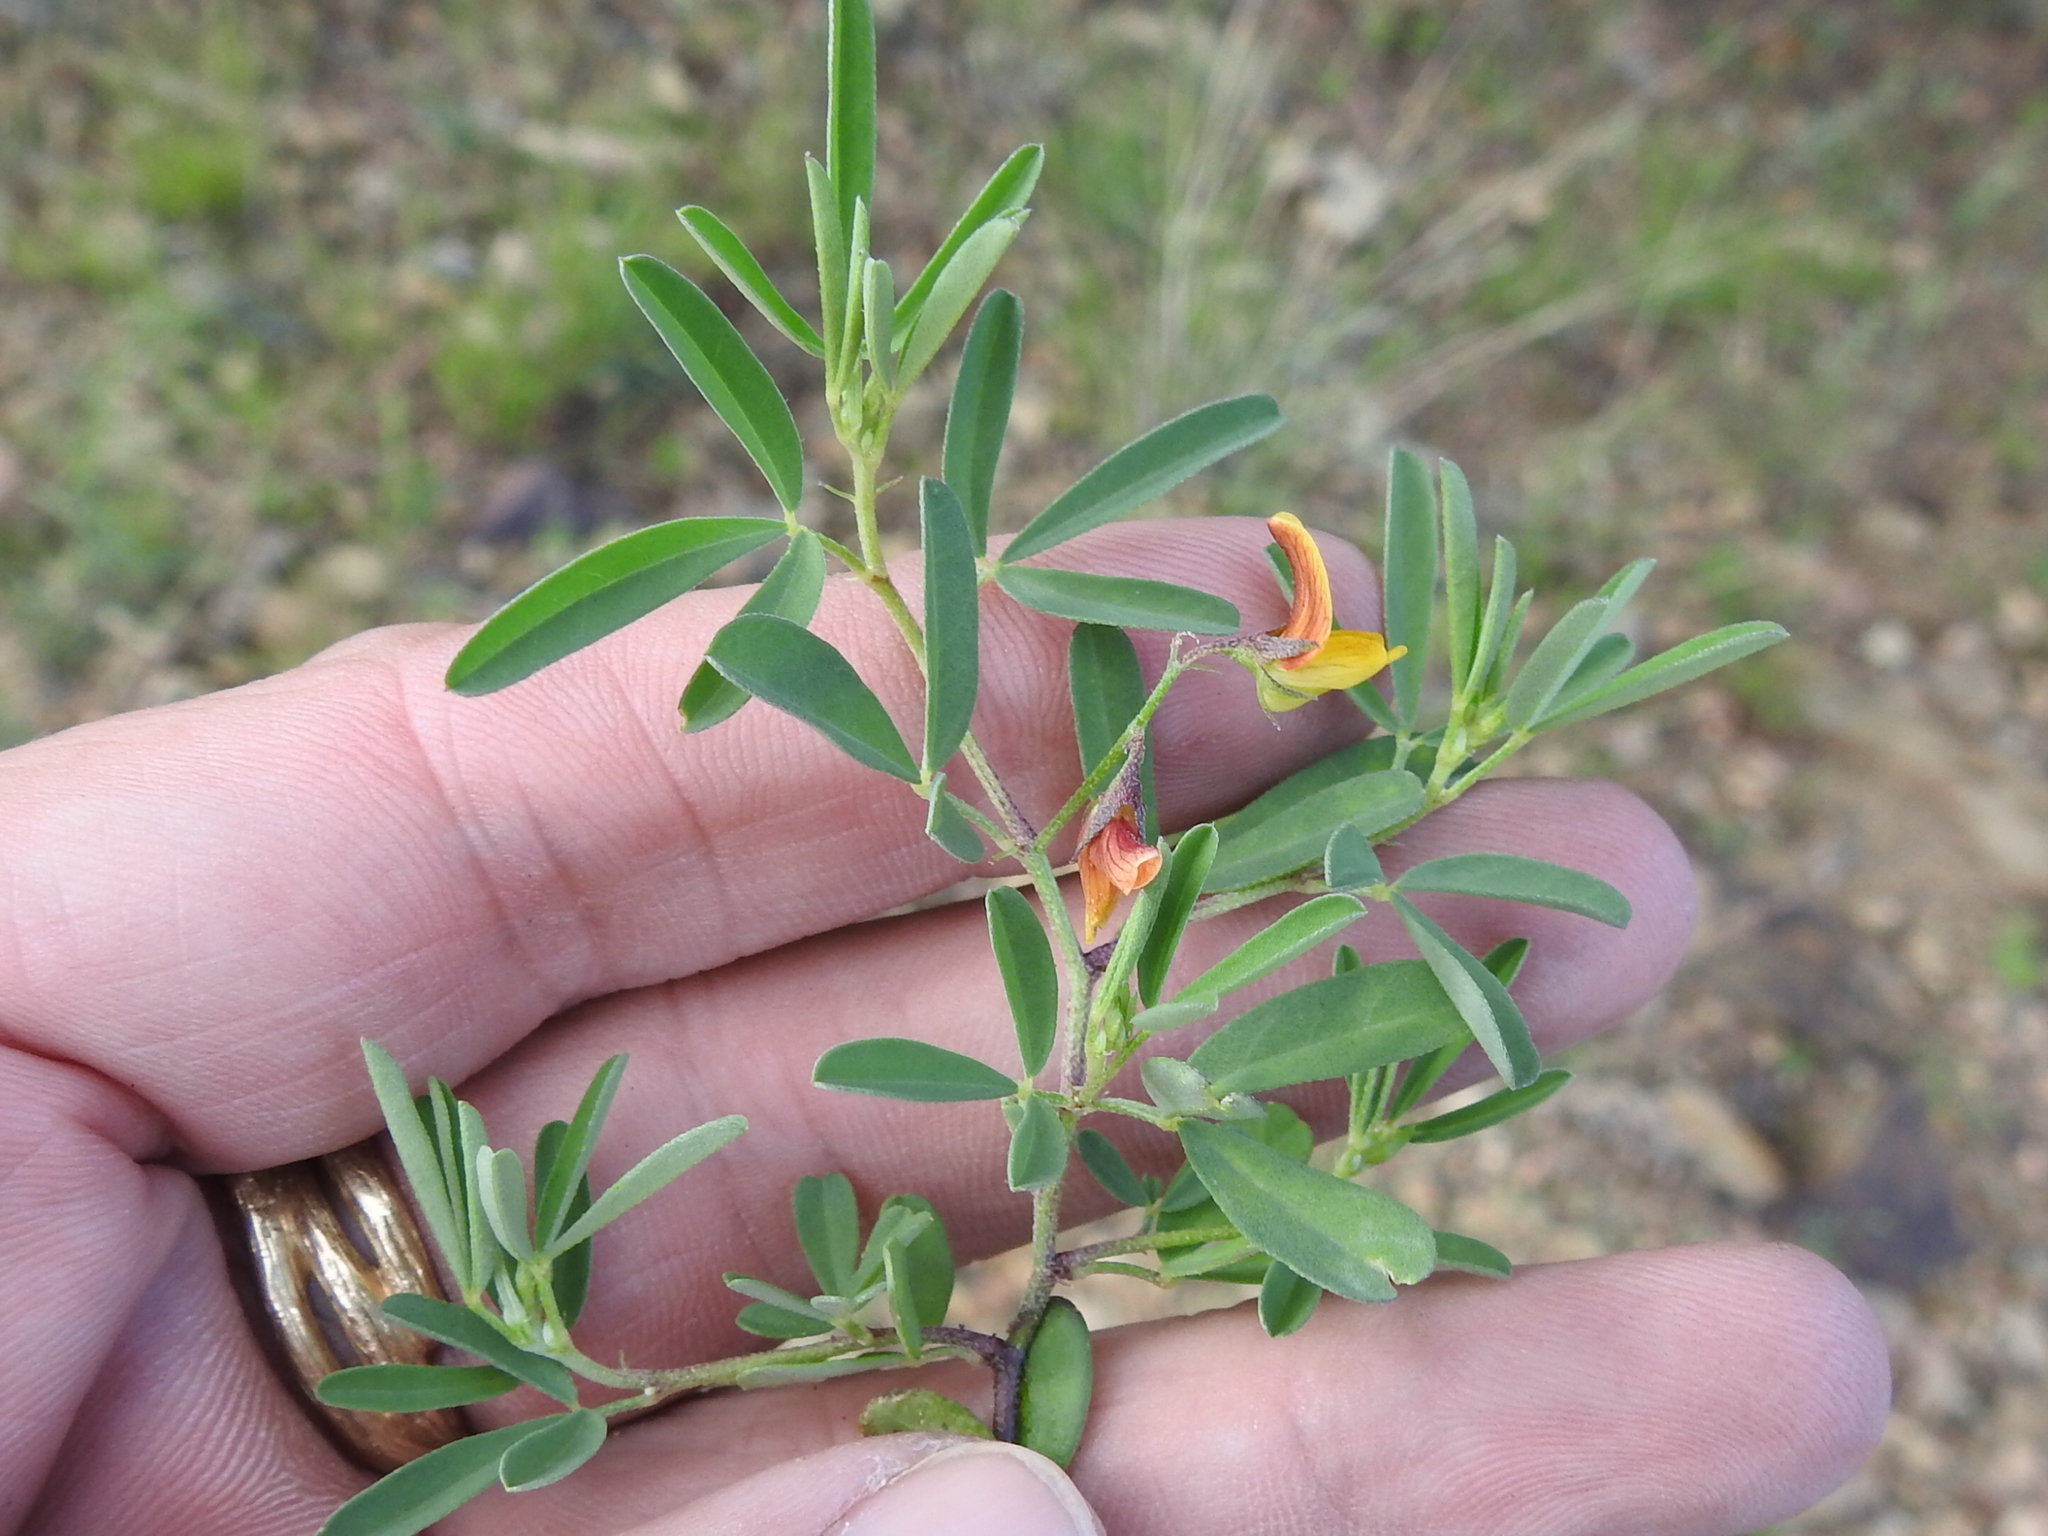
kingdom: Plantae
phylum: Tracheophyta
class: Magnoliopsida
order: Fabales
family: Fabaceae
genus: Crotalaria
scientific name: Crotalaria pumila
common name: Low rattlebox
